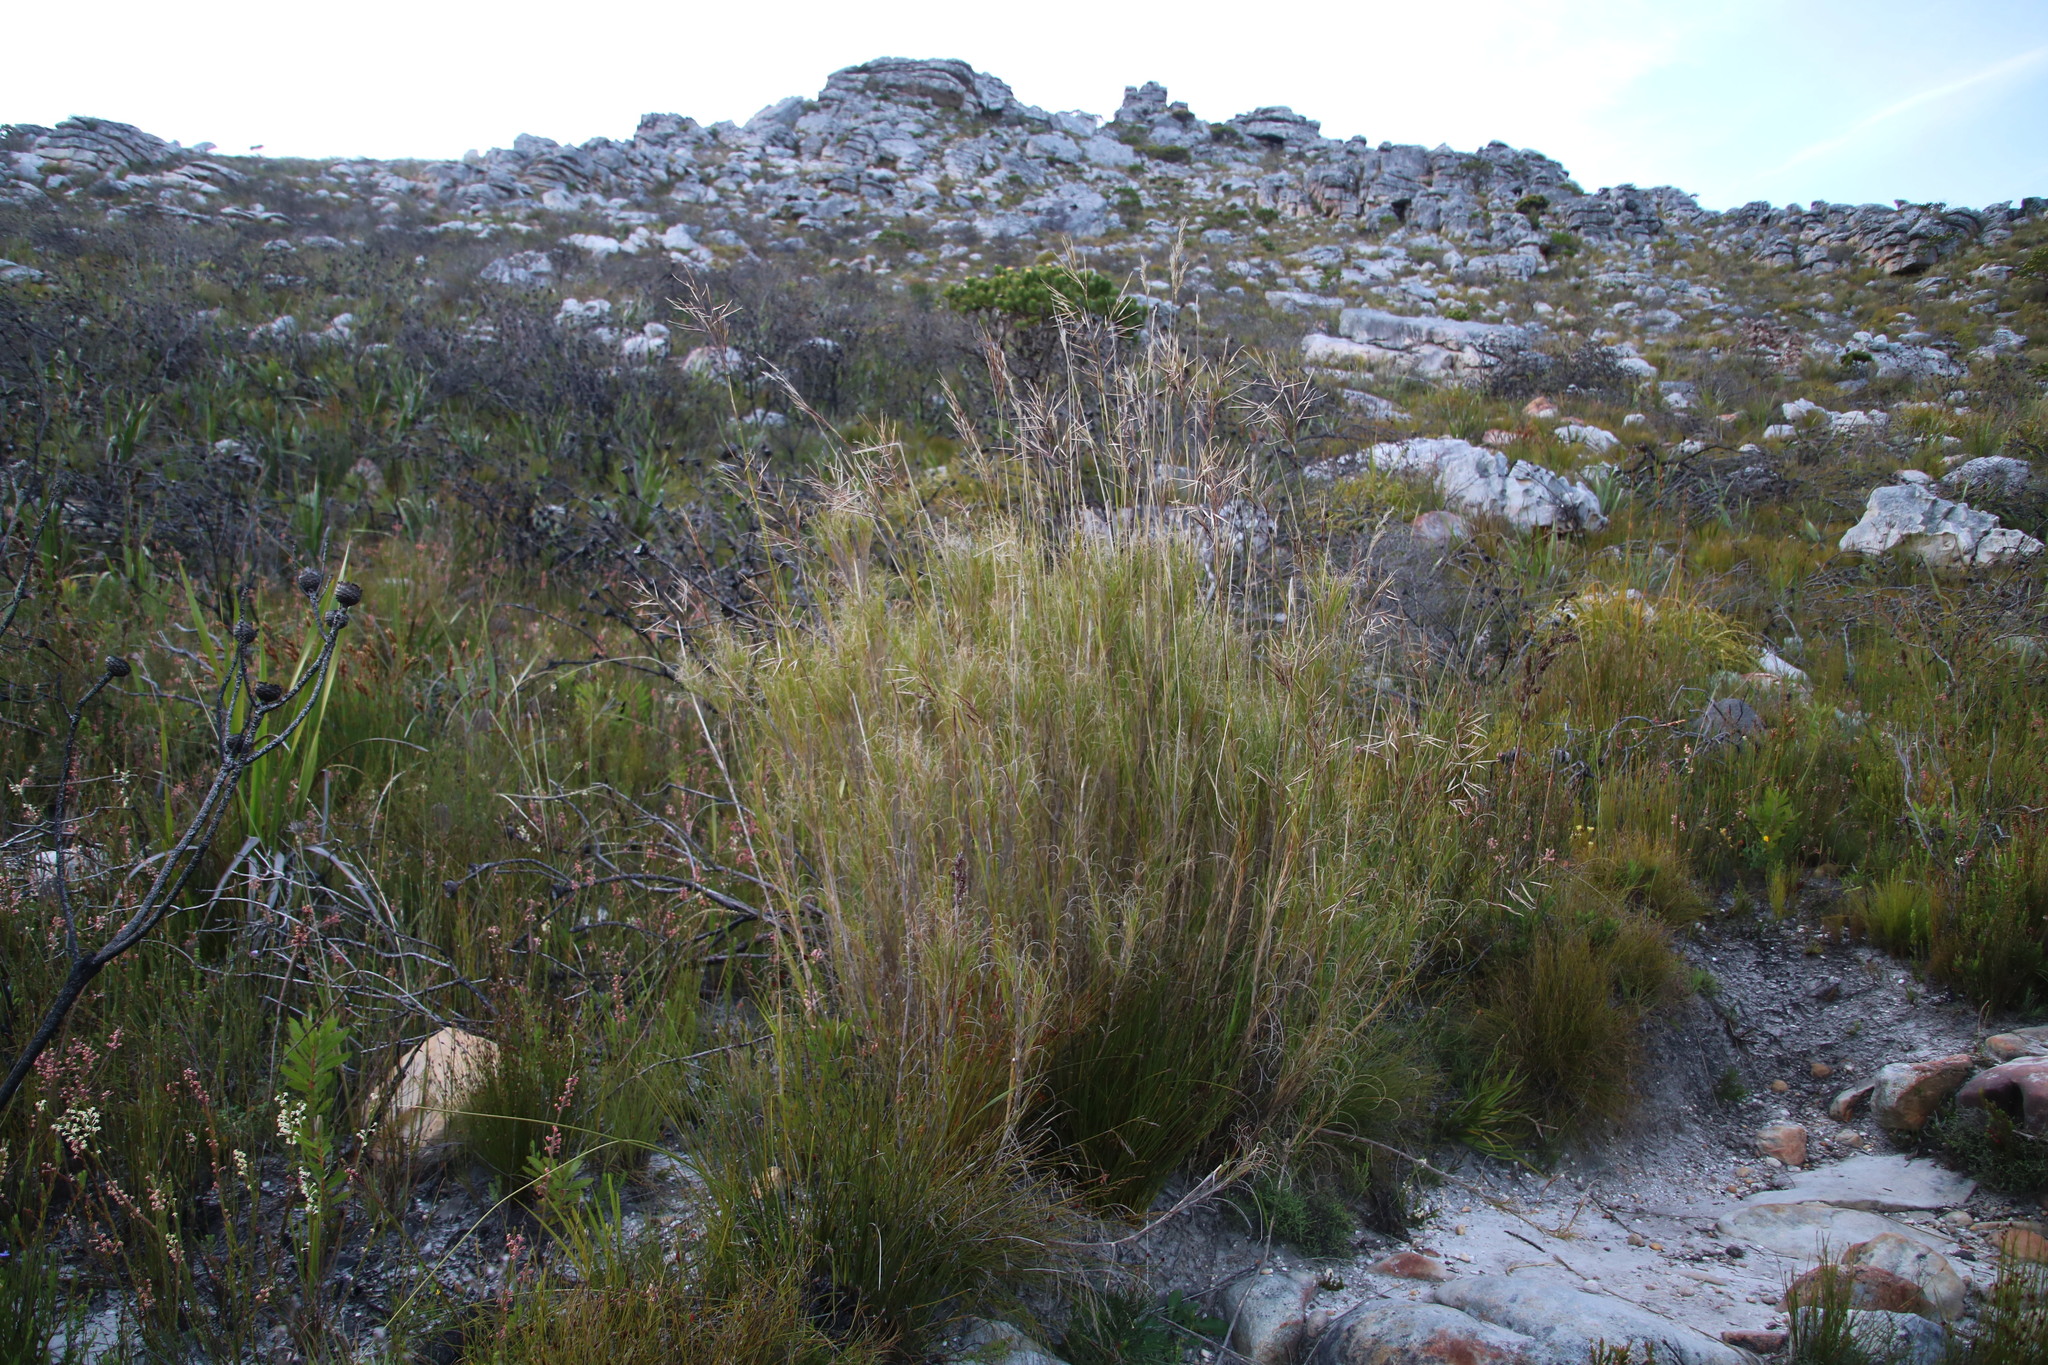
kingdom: Plantae
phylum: Tracheophyta
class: Liliopsida
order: Poales
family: Poaceae
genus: Pseudopentameris
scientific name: Pseudopentameris macrantha
